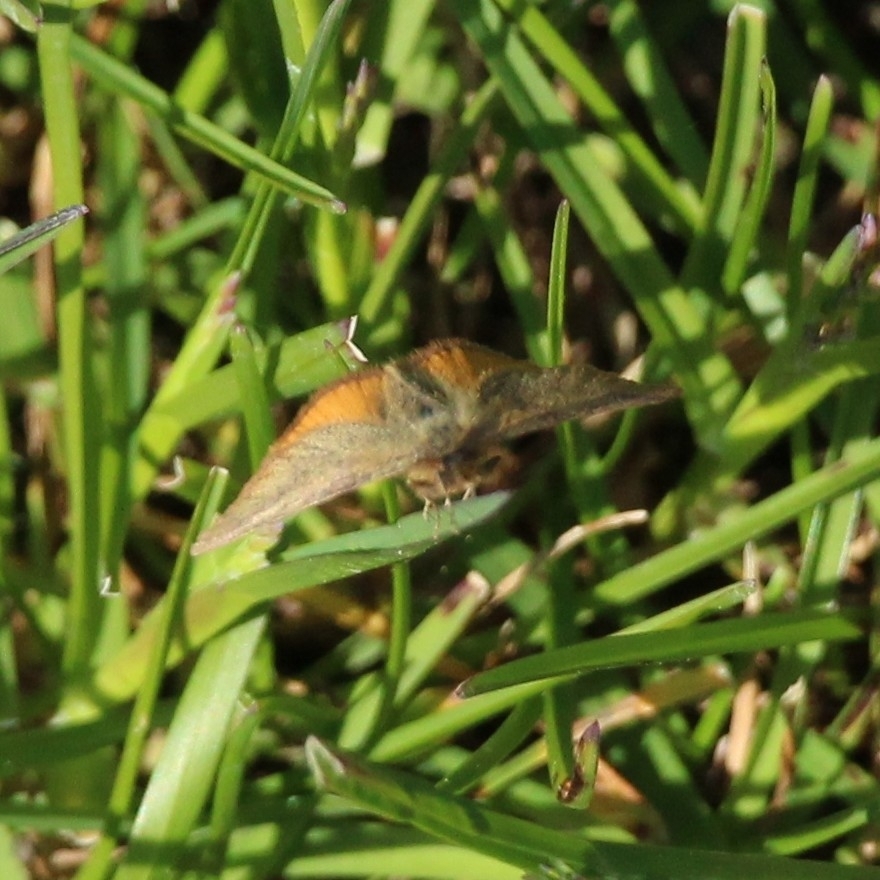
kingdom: Animalia
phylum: Arthropoda
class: Insecta
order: Lepidoptera
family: Geometridae
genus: Lythria
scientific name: Lythria purpuraria
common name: Purple-barred yellow
